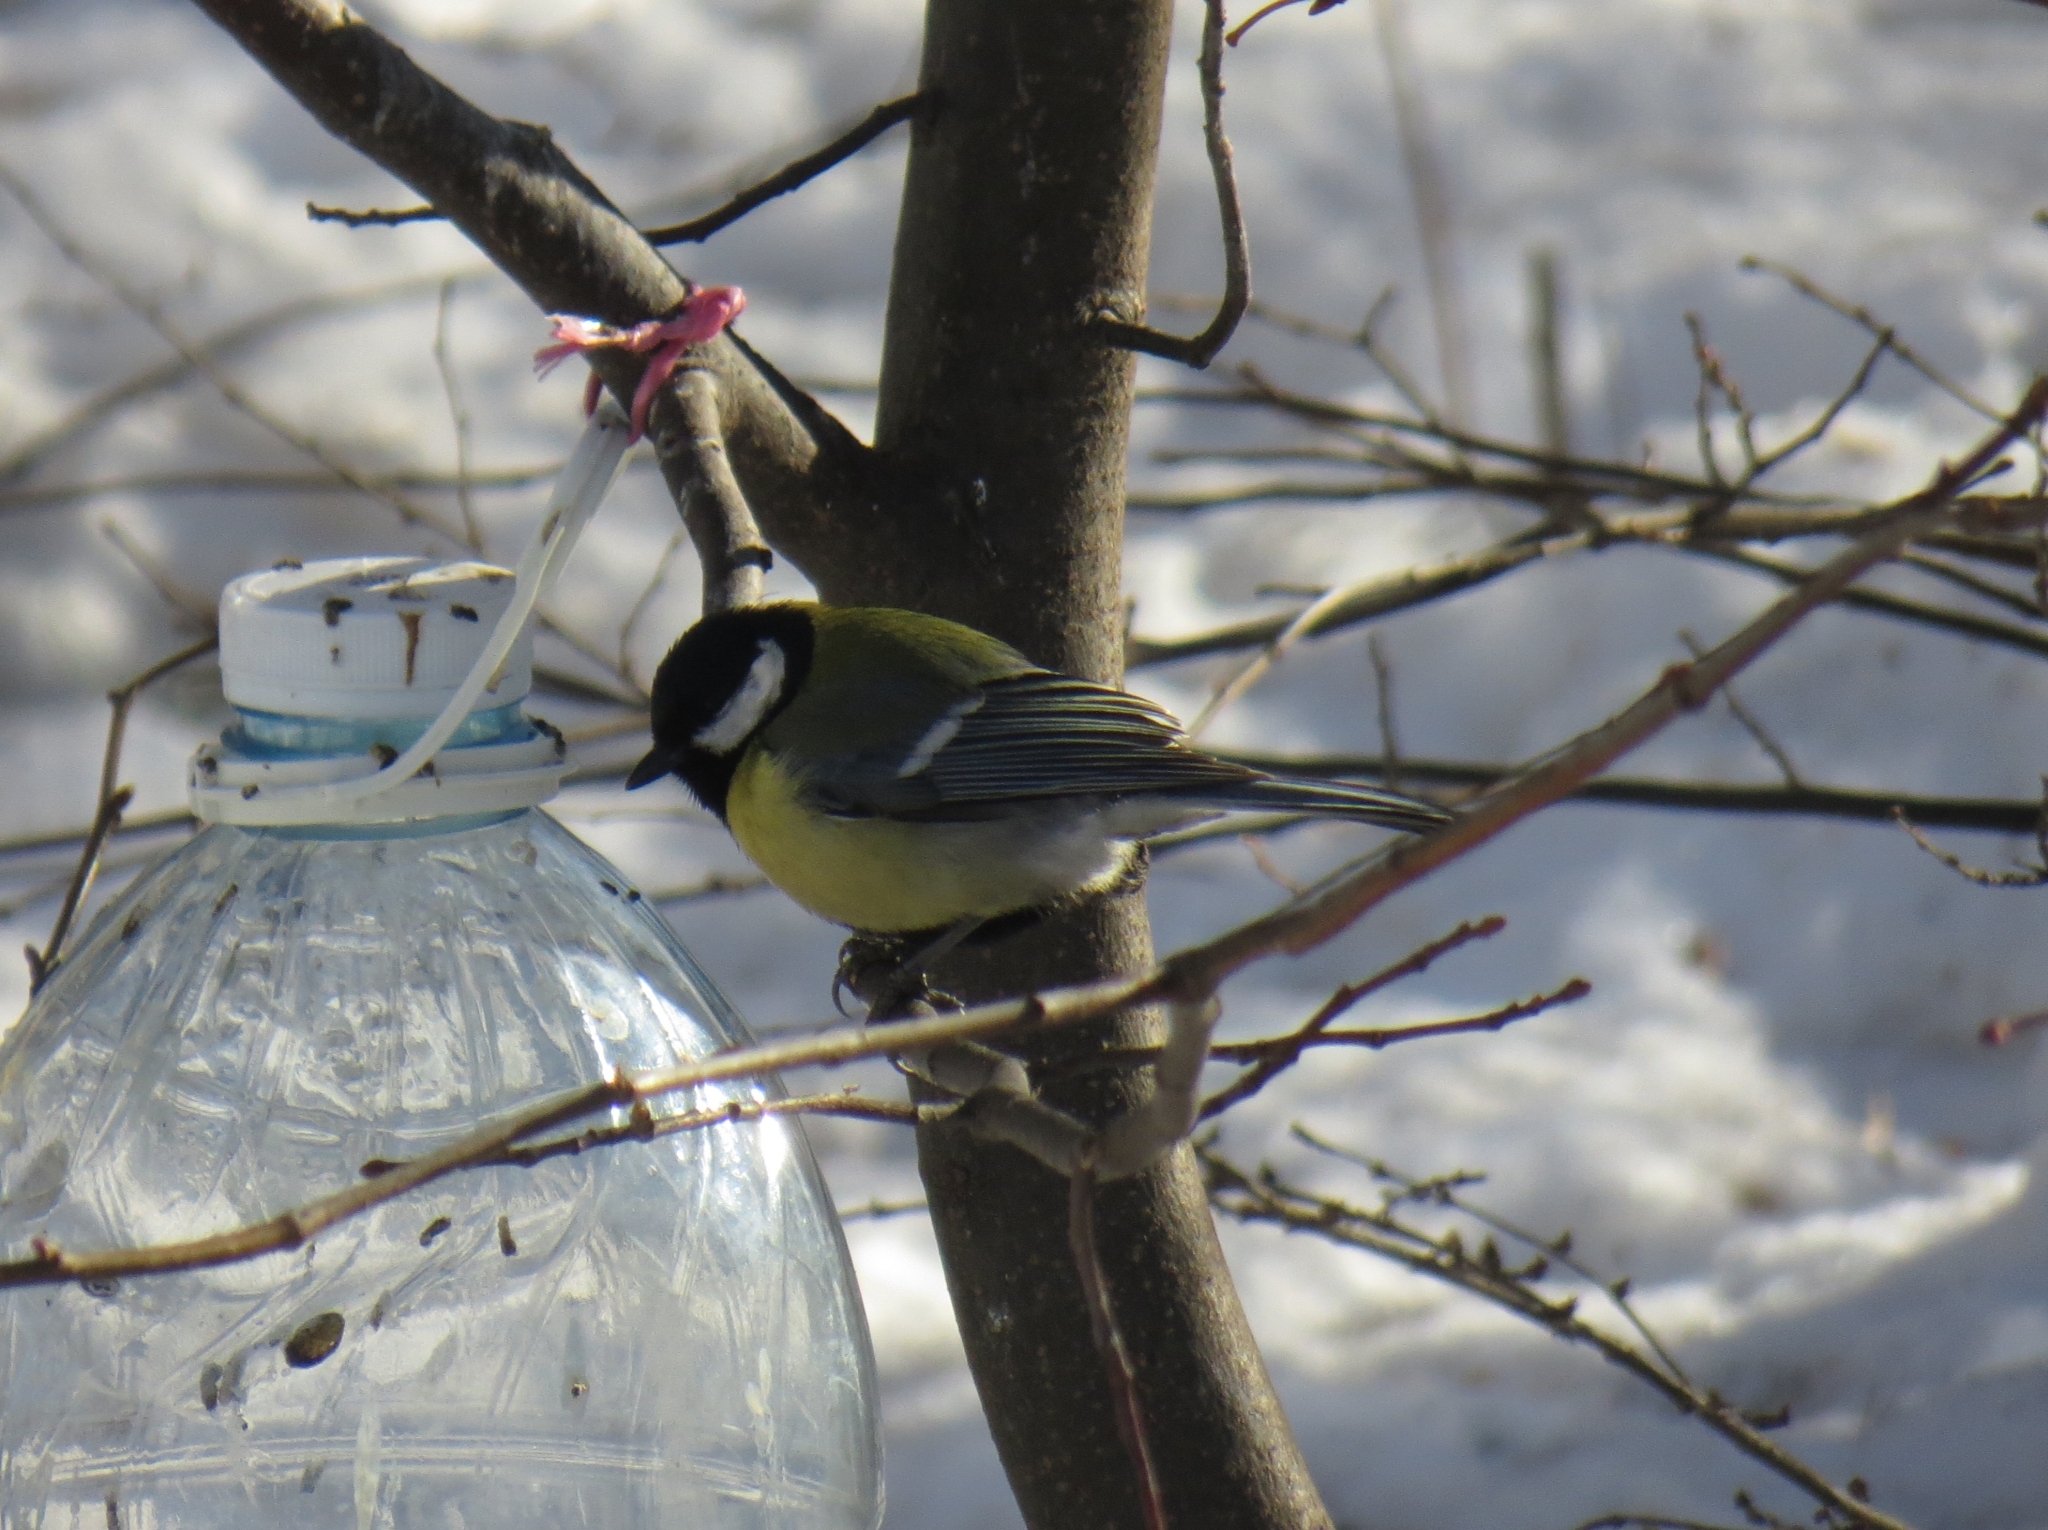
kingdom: Animalia
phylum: Chordata
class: Aves
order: Passeriformes
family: Paridae
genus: Parus
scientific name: Parus major
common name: Great tit
